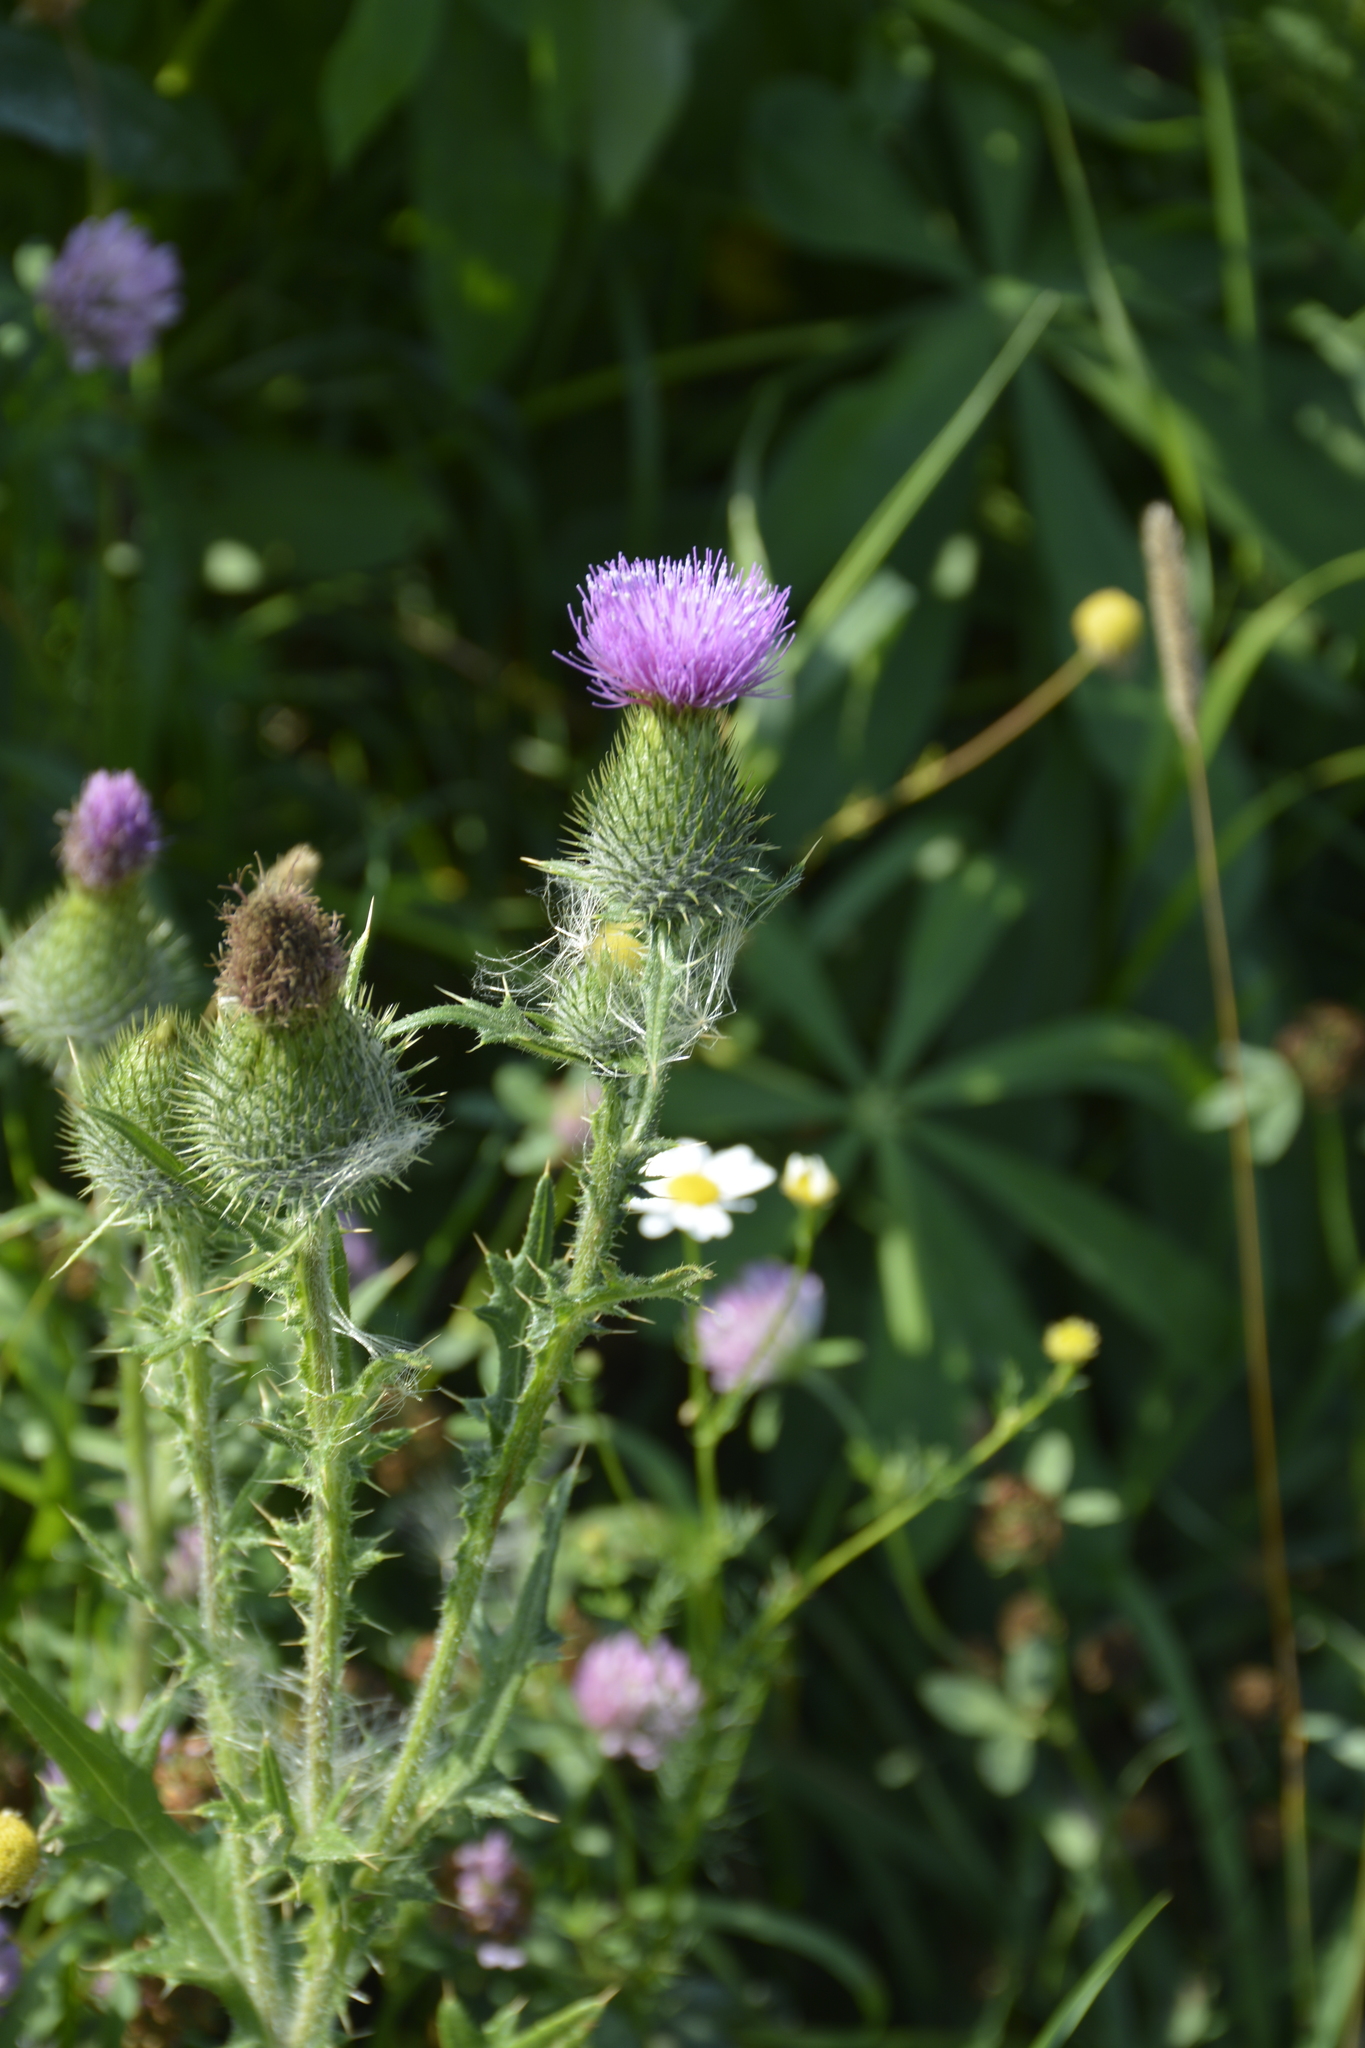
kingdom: Plantae
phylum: Tracheophyta
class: Magnoliopsida
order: Asterales
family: Asteraceae
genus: Cirsium
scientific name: Cirsium vulgare
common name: Bull thistle
